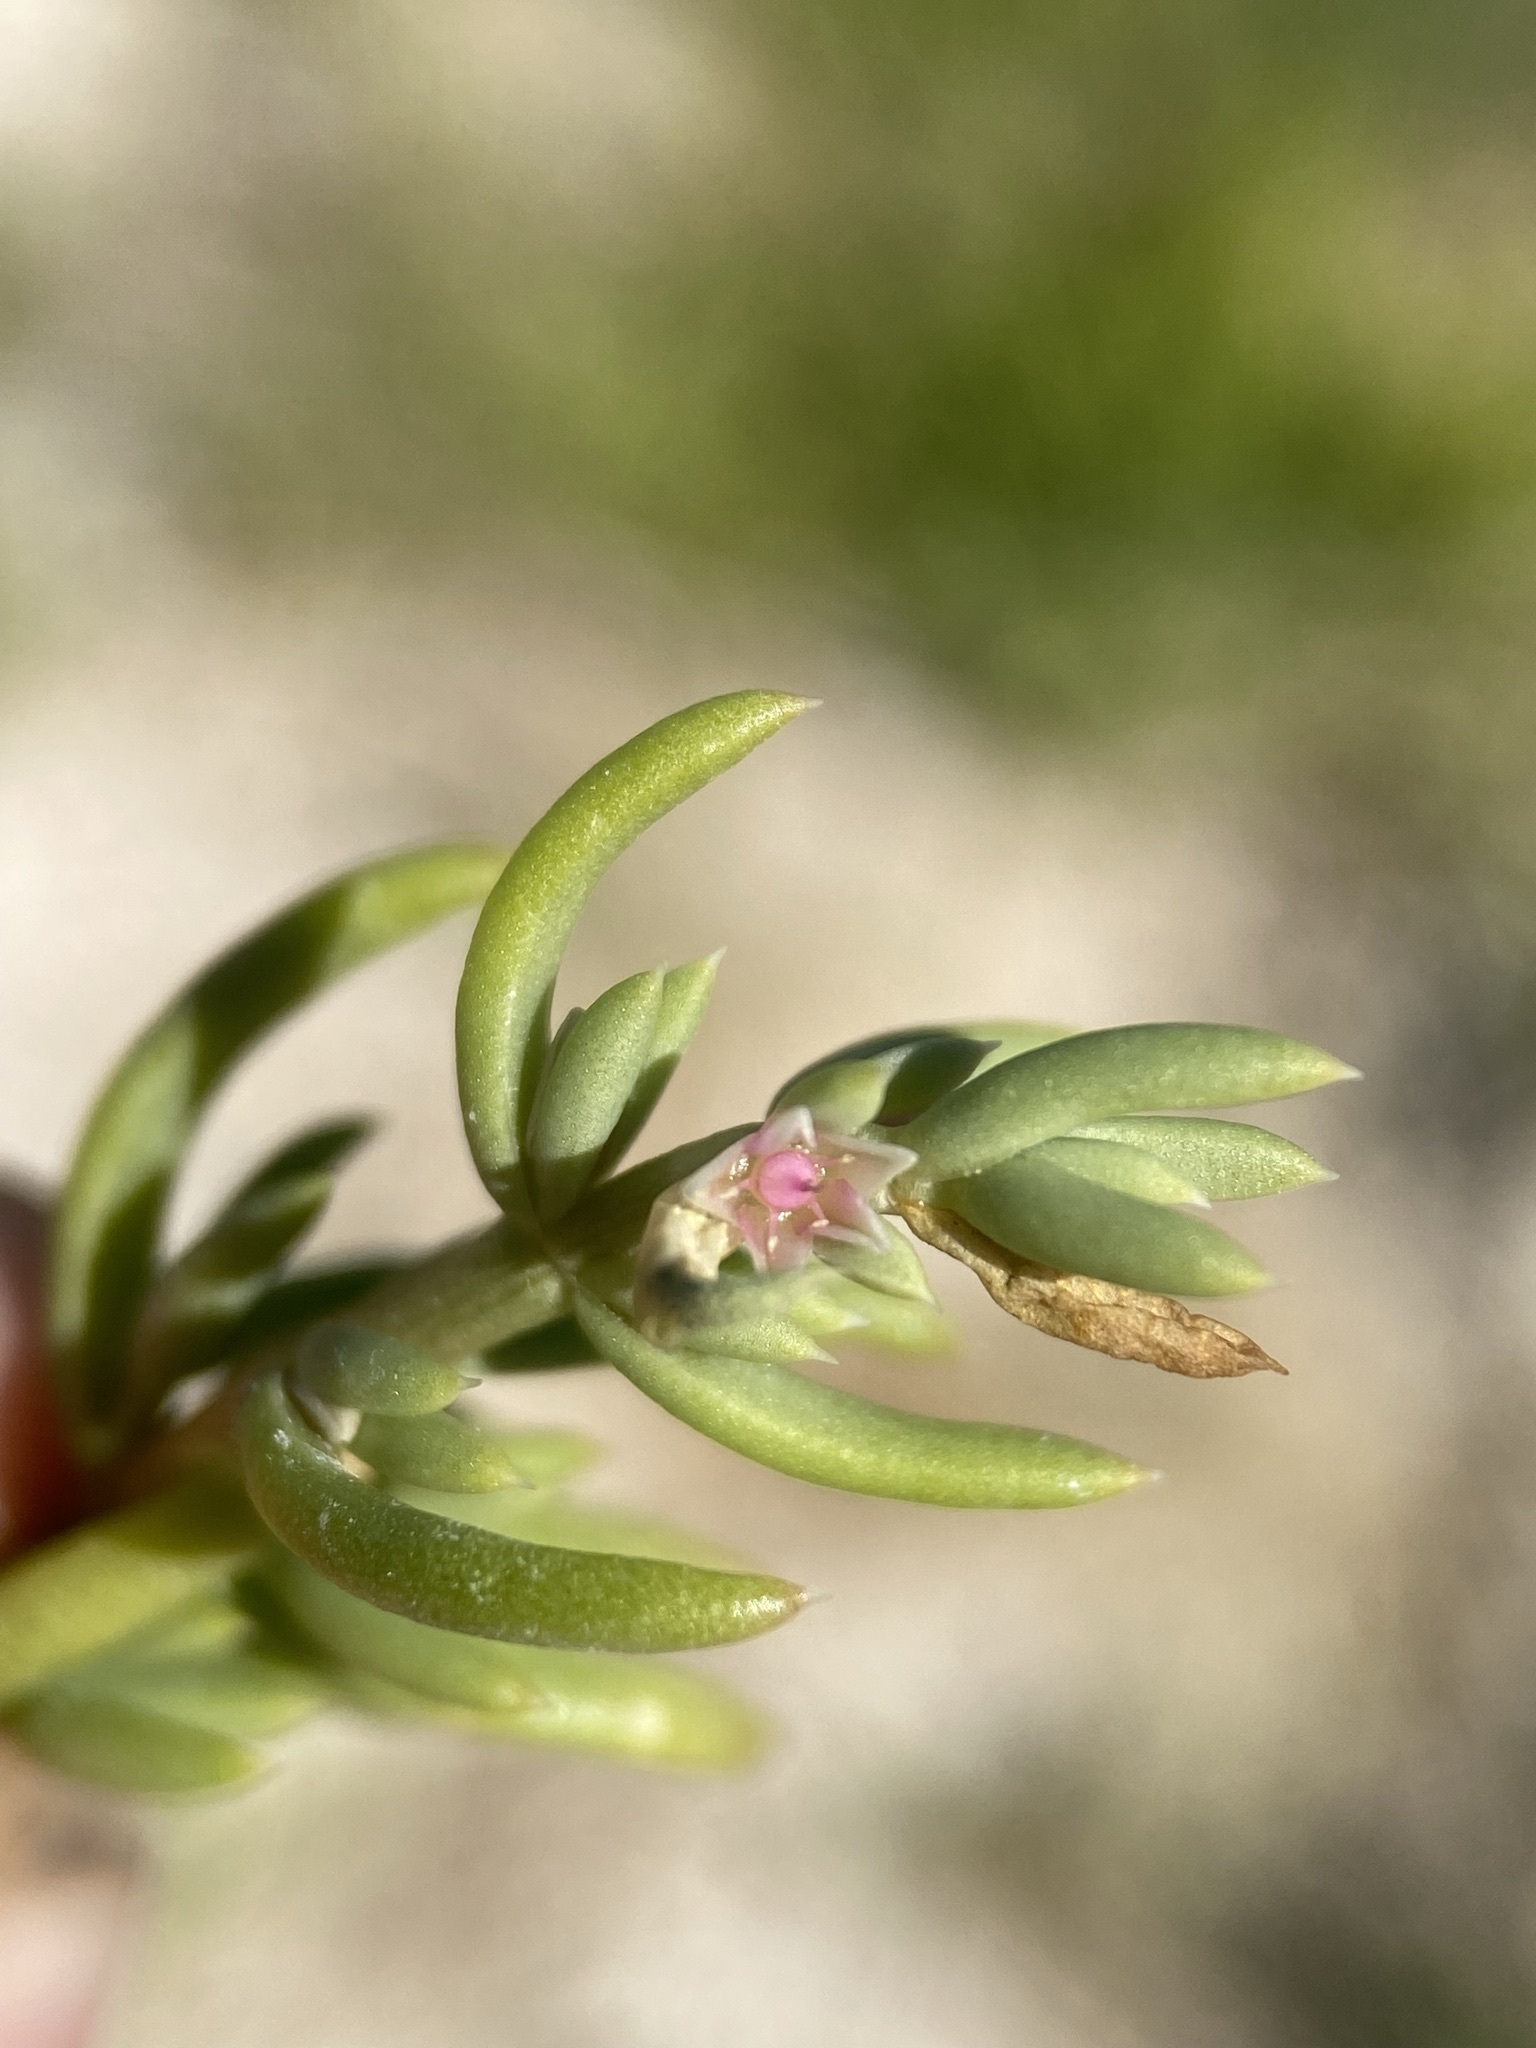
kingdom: Plantae
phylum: Tracheophyta
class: Magnoliopsida
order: Caryophyllales
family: Amaranthaceae
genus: Nitrophila
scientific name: Nitrophila occidentalis
